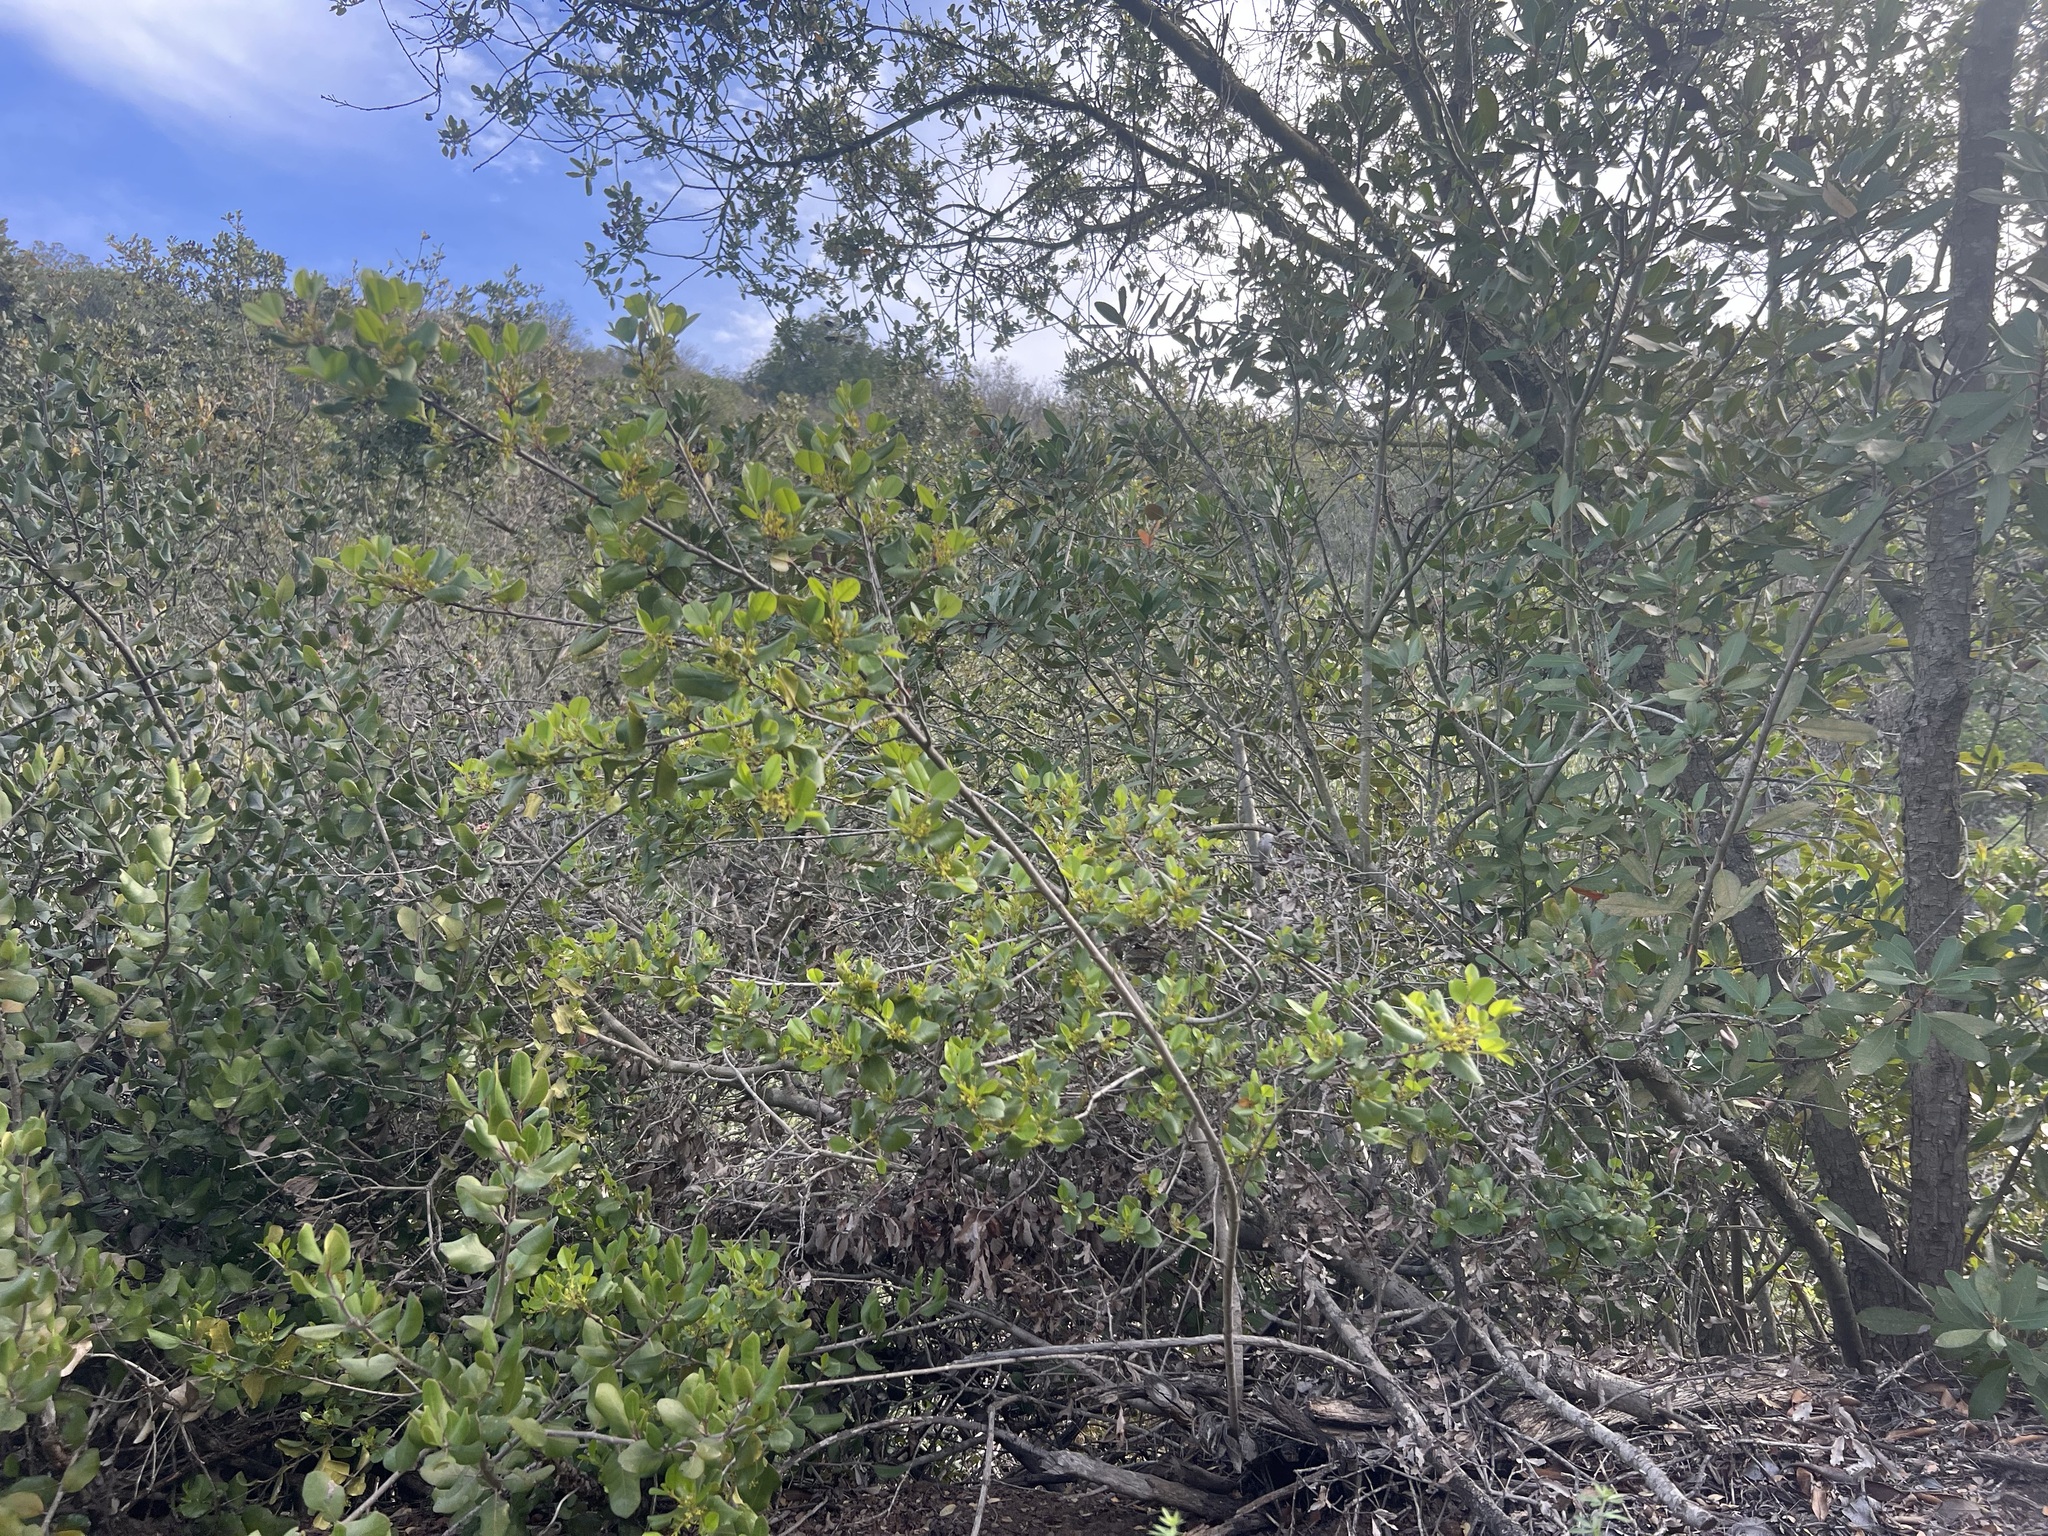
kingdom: Plantae
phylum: Tracheophyta
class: Magnoliopsida
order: Rosales
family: Rhamnaceae
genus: Endotropis
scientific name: Endotropis crocea
